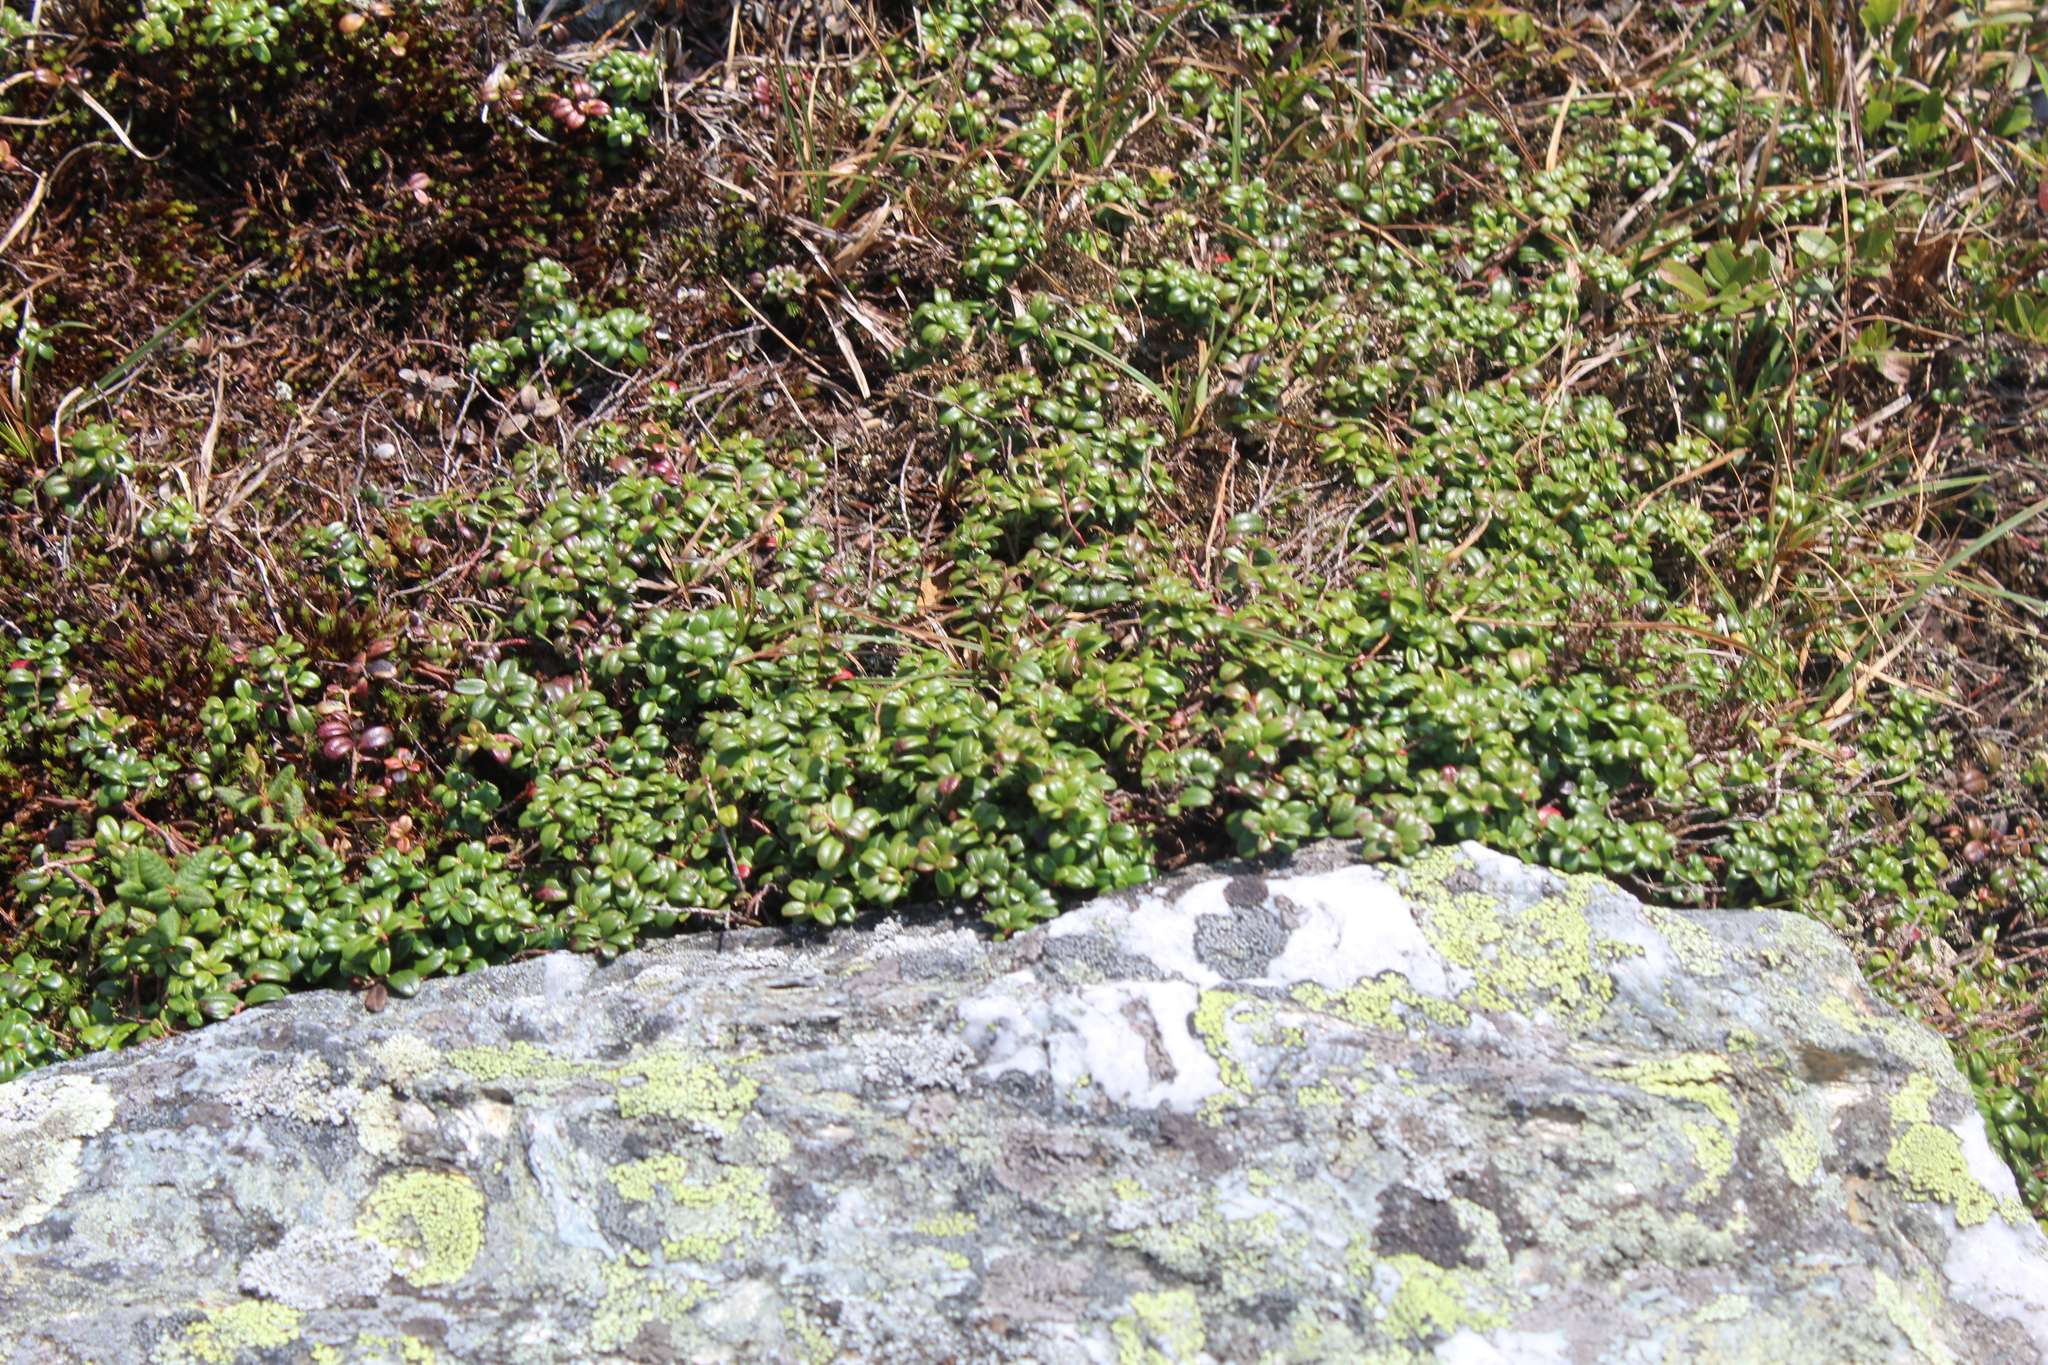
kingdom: Plantae
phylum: Tracheophyta
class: Magnoliopsida
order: Ericales
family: Ericaceae
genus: Vaccinium
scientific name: Vaccinium vitis-idaea
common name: Cowberry
